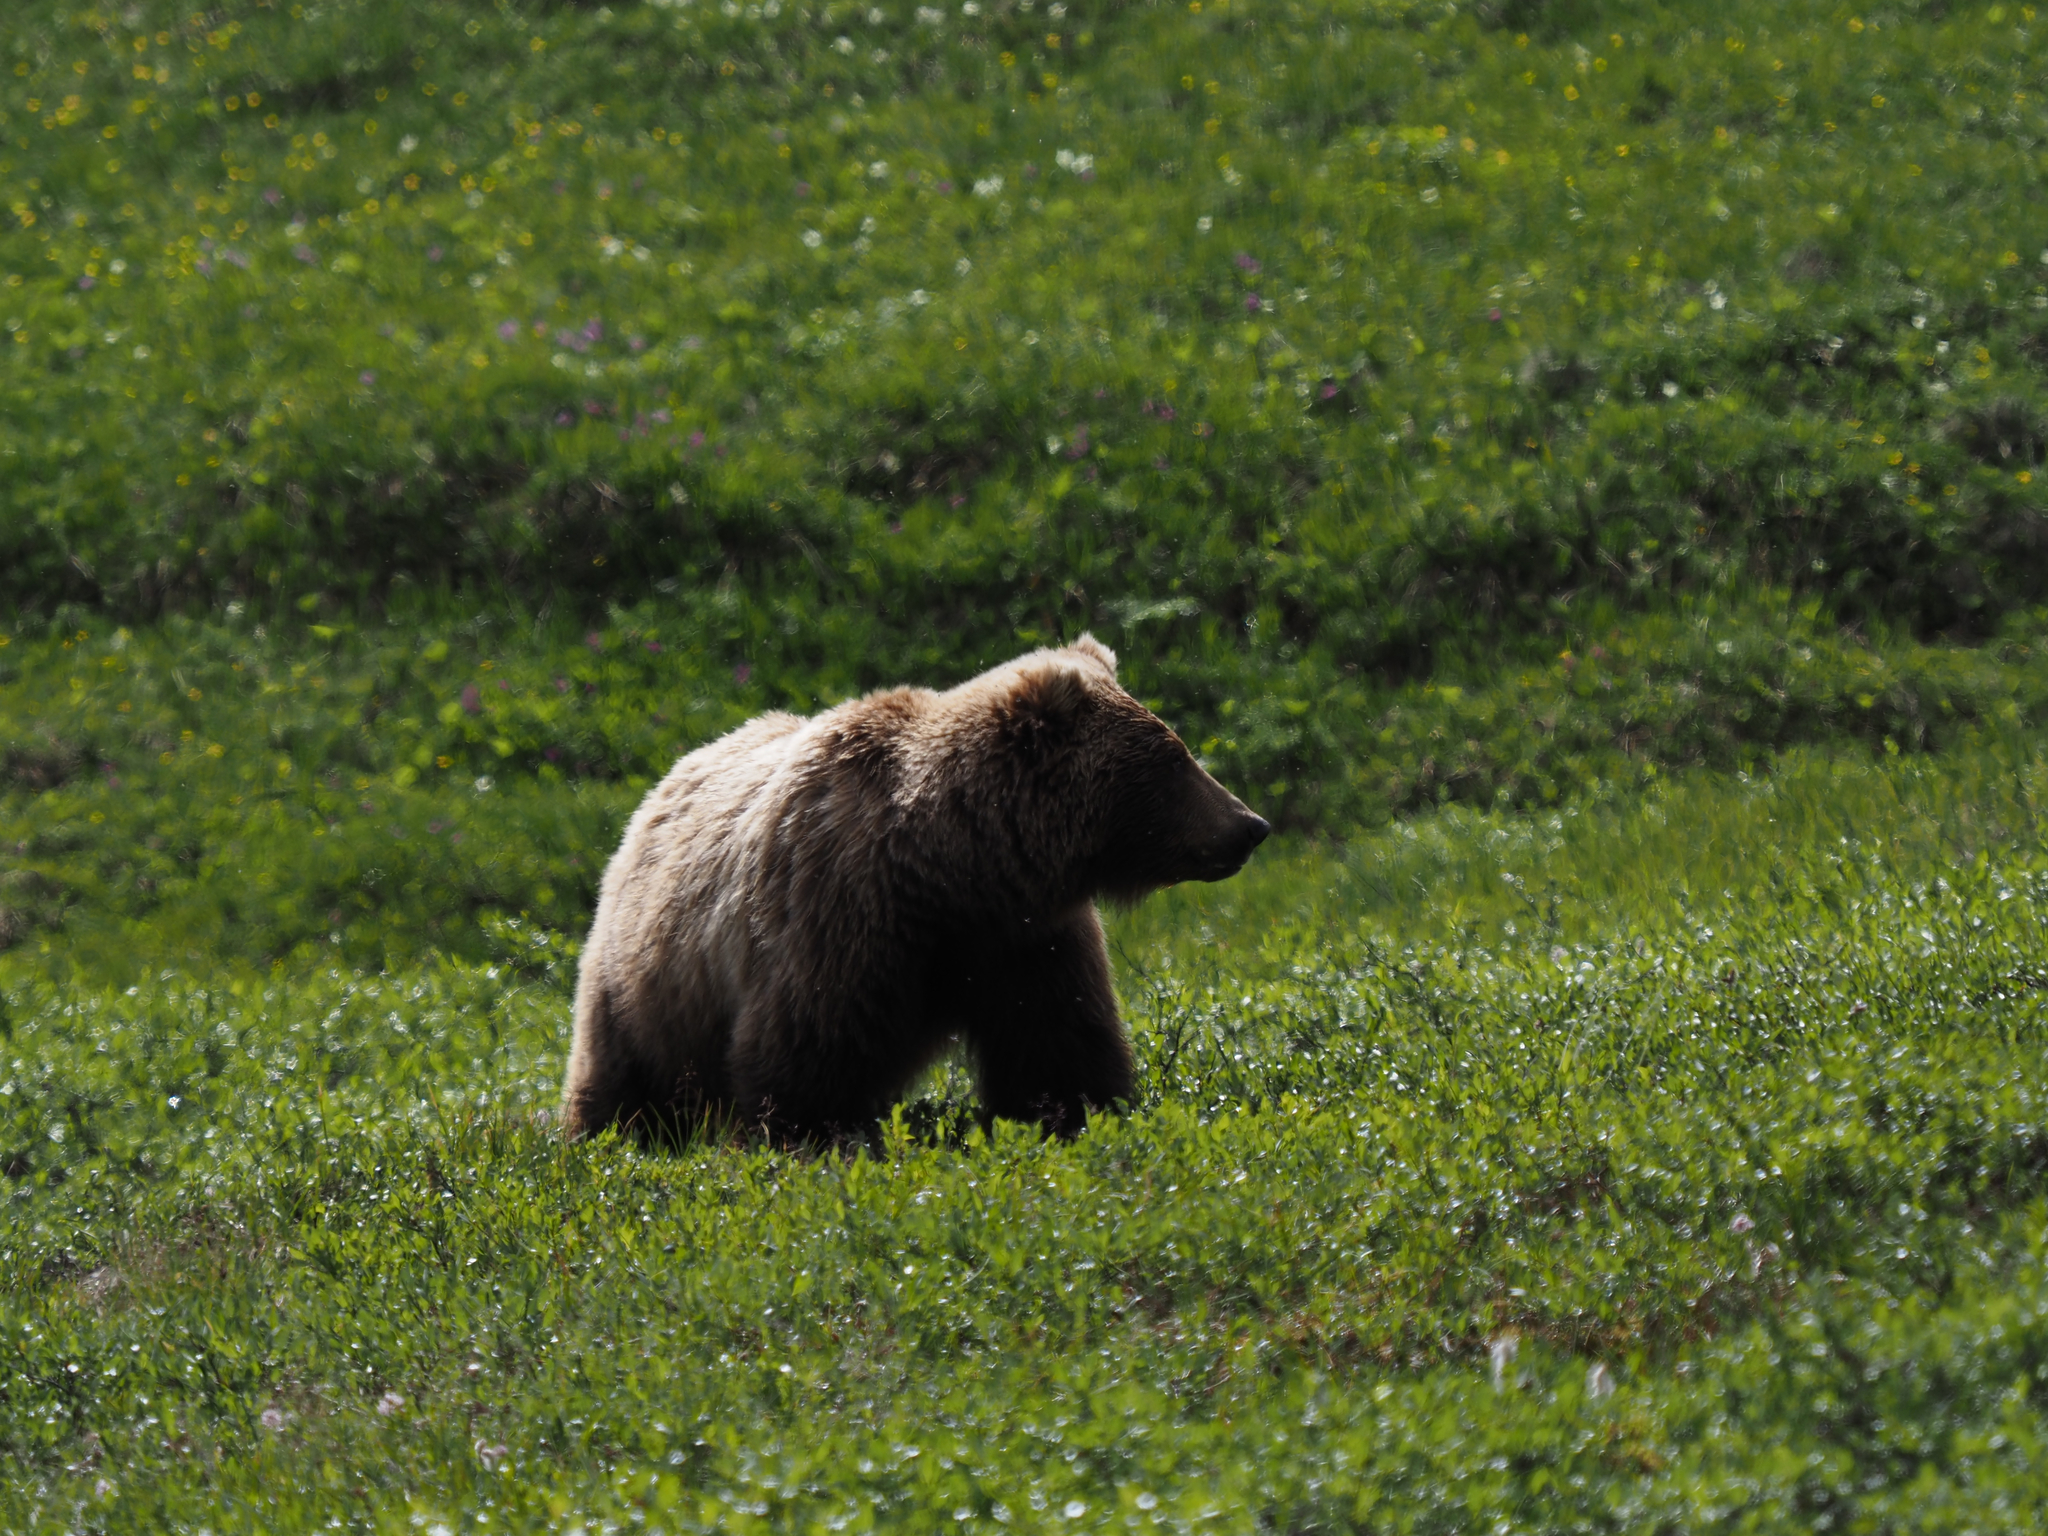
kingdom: Animalia
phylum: Chordata
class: Mammalia
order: Carnivora
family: Ursidae
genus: Ursus
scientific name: Ursus arctos
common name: Brown bear
